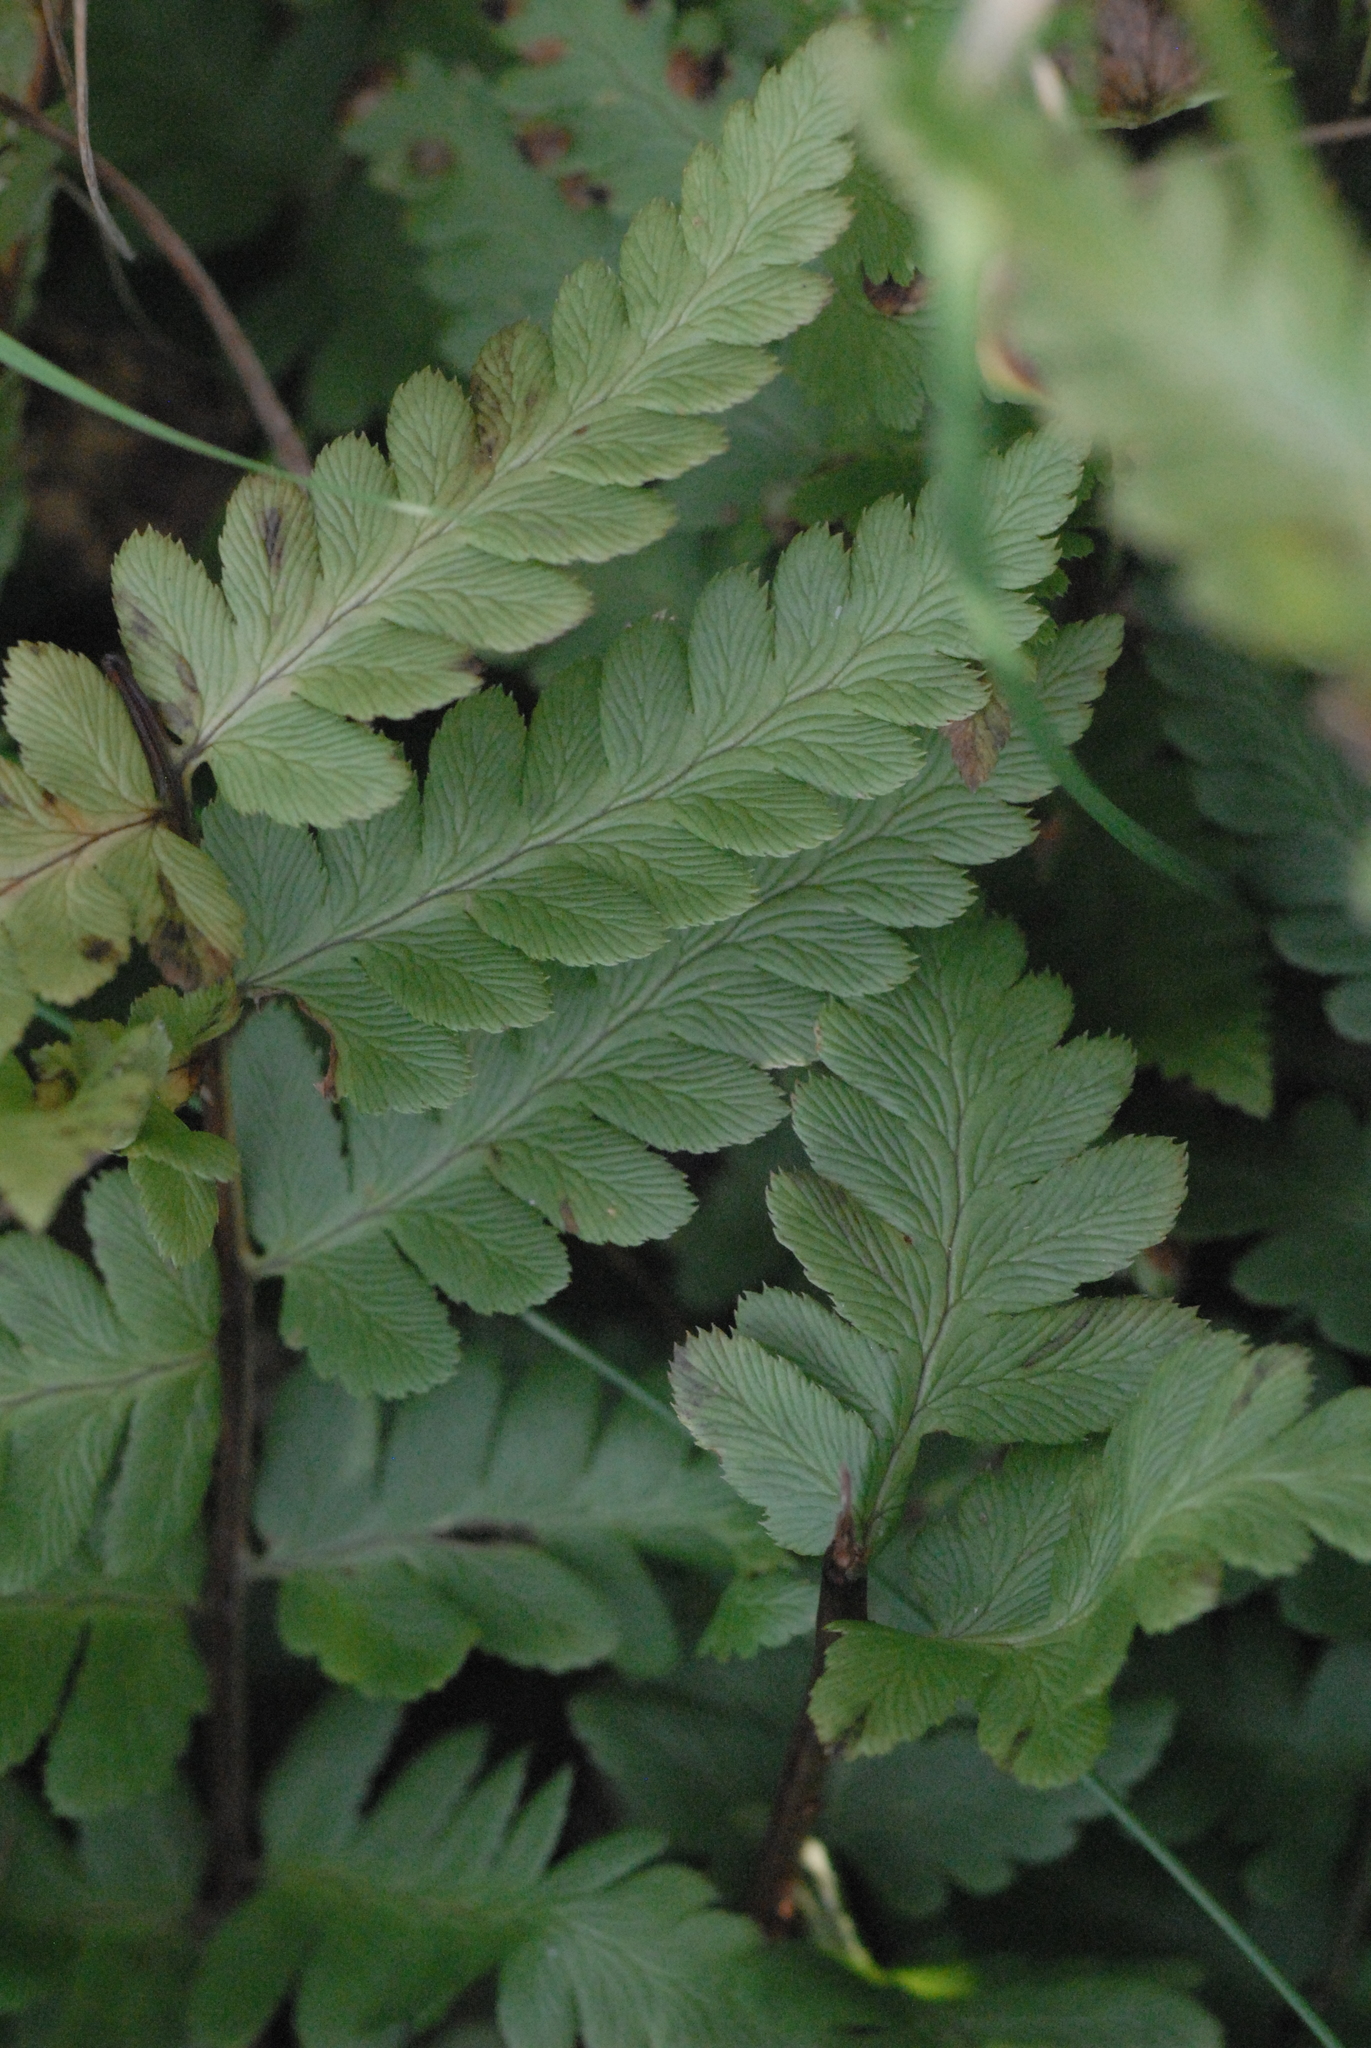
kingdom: Plantae
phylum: Tracheophyta
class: Polypodiopsida
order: Polypodiales
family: Dryopteridaceae
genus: Dryopteris
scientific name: Dryopteris cristata
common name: Crested wood fern
